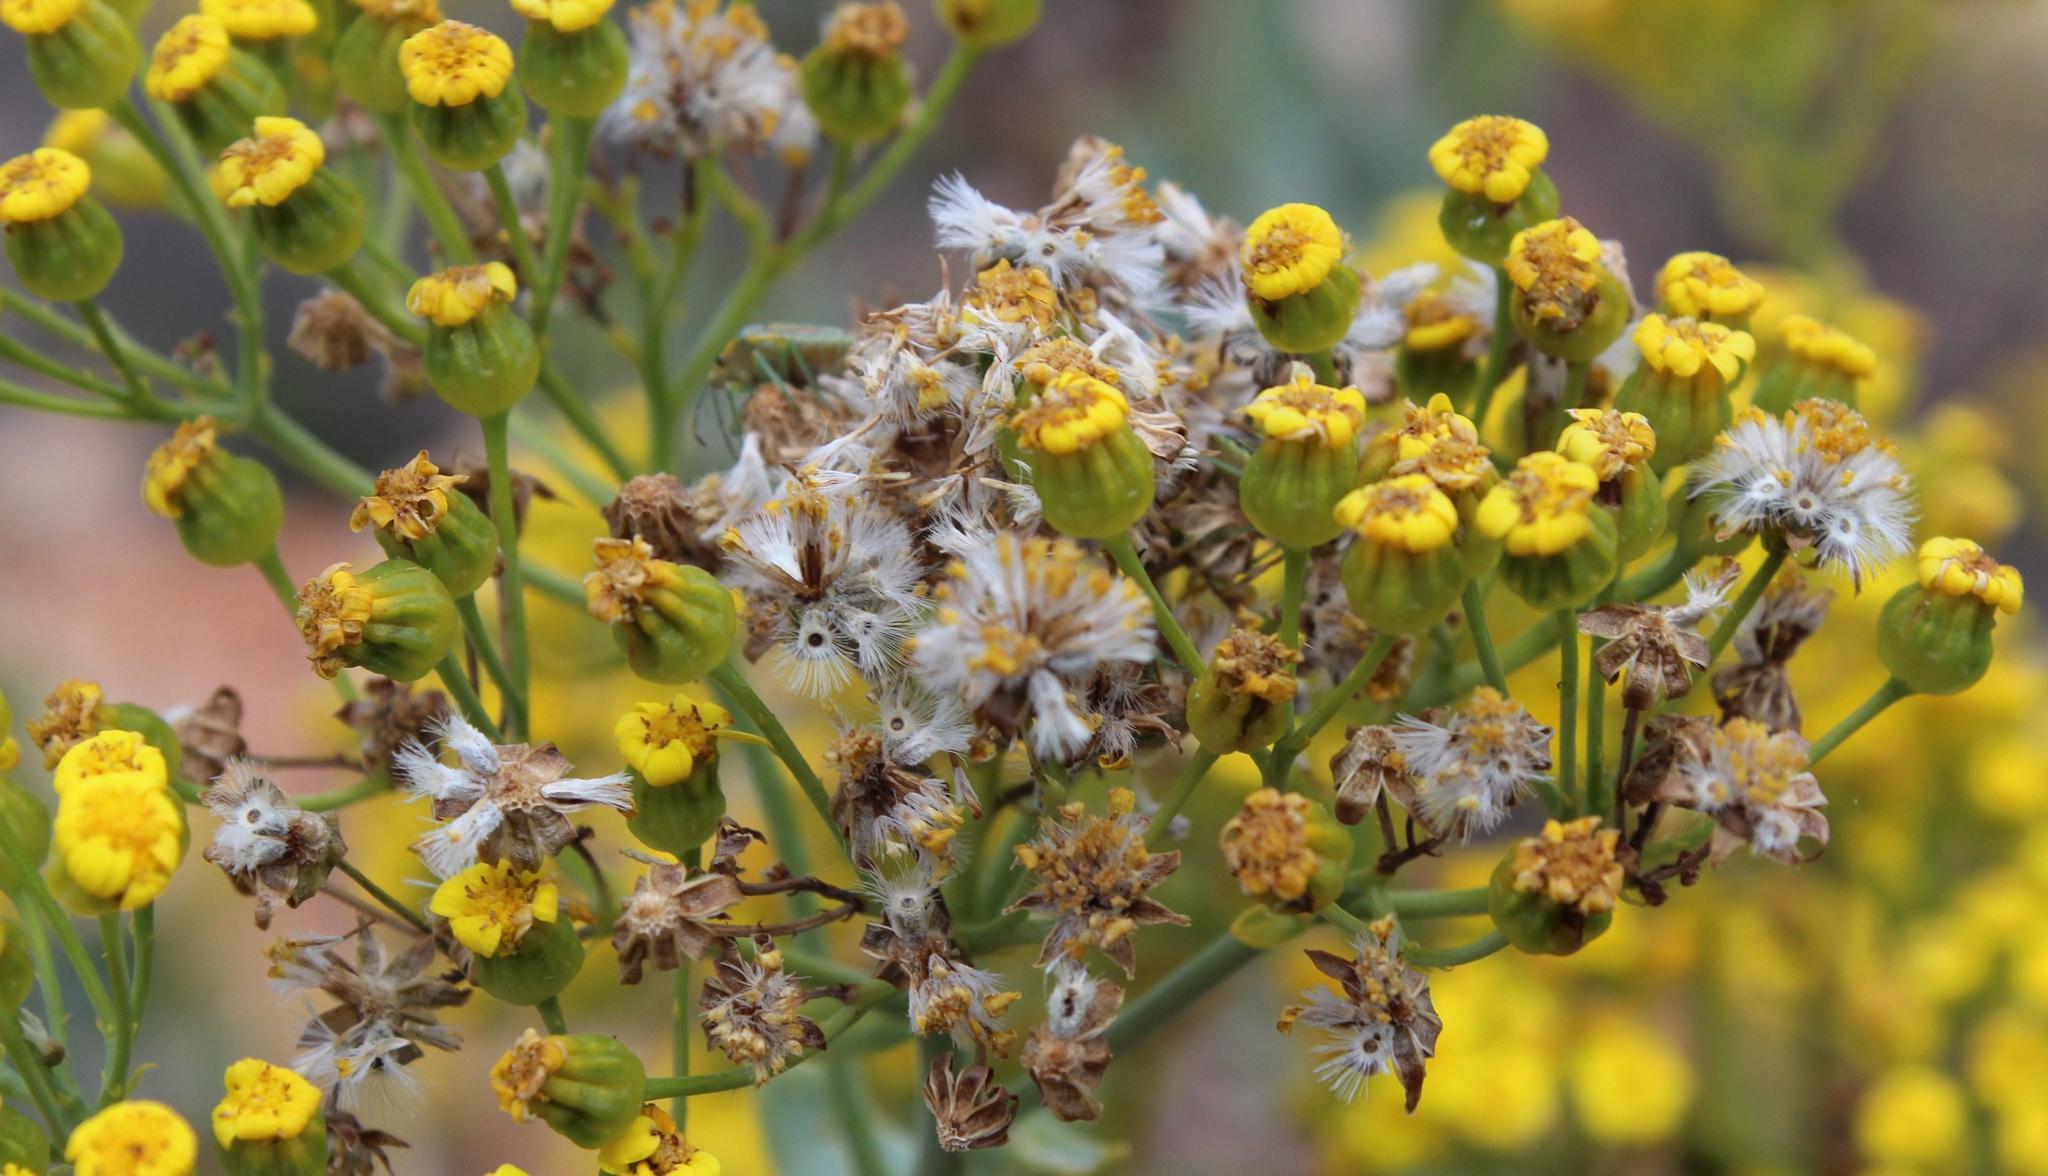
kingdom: Plantae
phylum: Tracheophyta
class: Magnoliopsida
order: Asterales
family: Asteraceae
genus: Othonna
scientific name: Othonna parviflora
